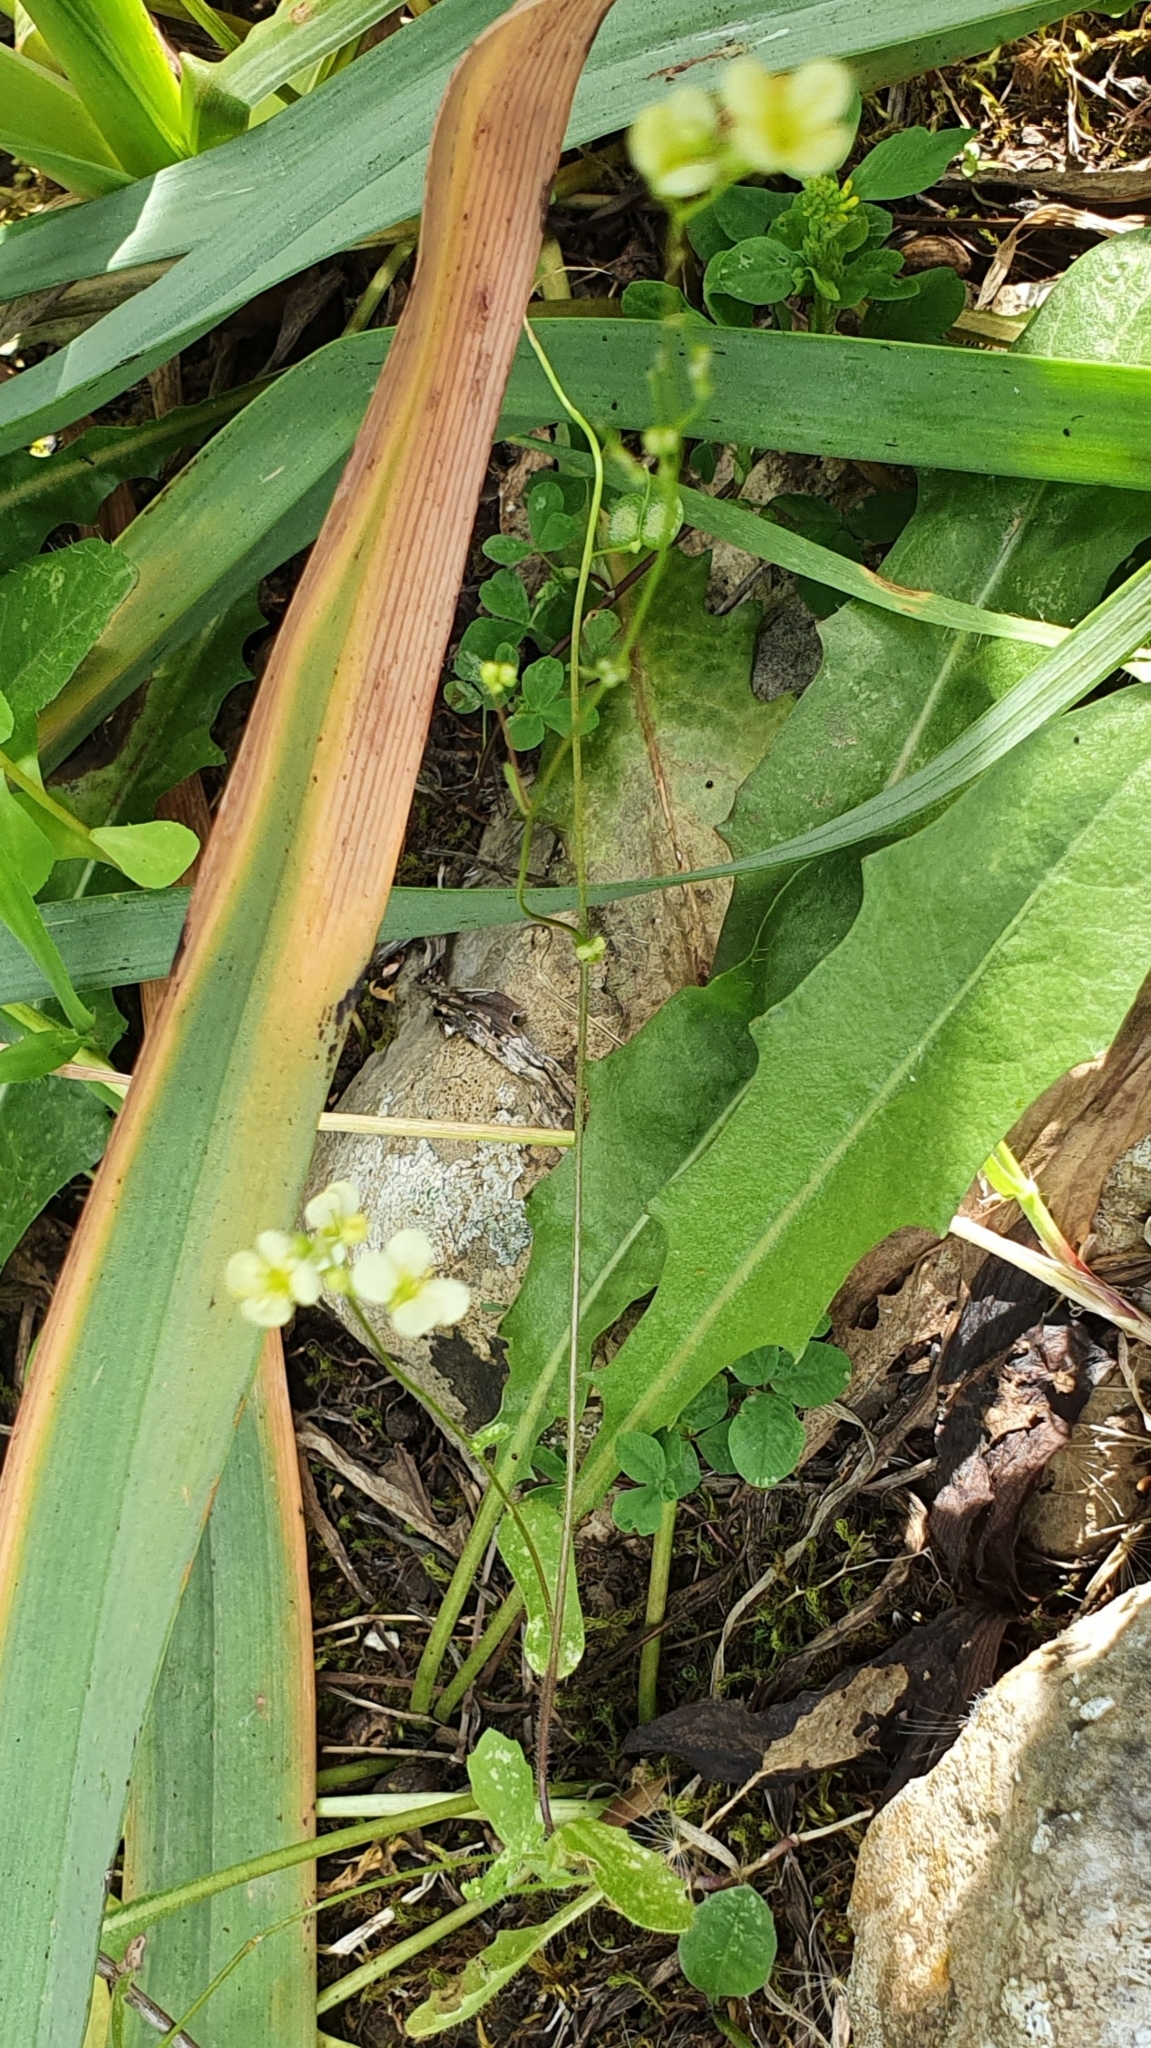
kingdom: Plantae
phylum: Tracheophyta
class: Magnoliopsida
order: Brassicales
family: Brassicaceae
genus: Biscutella
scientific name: Biscutella didyma
